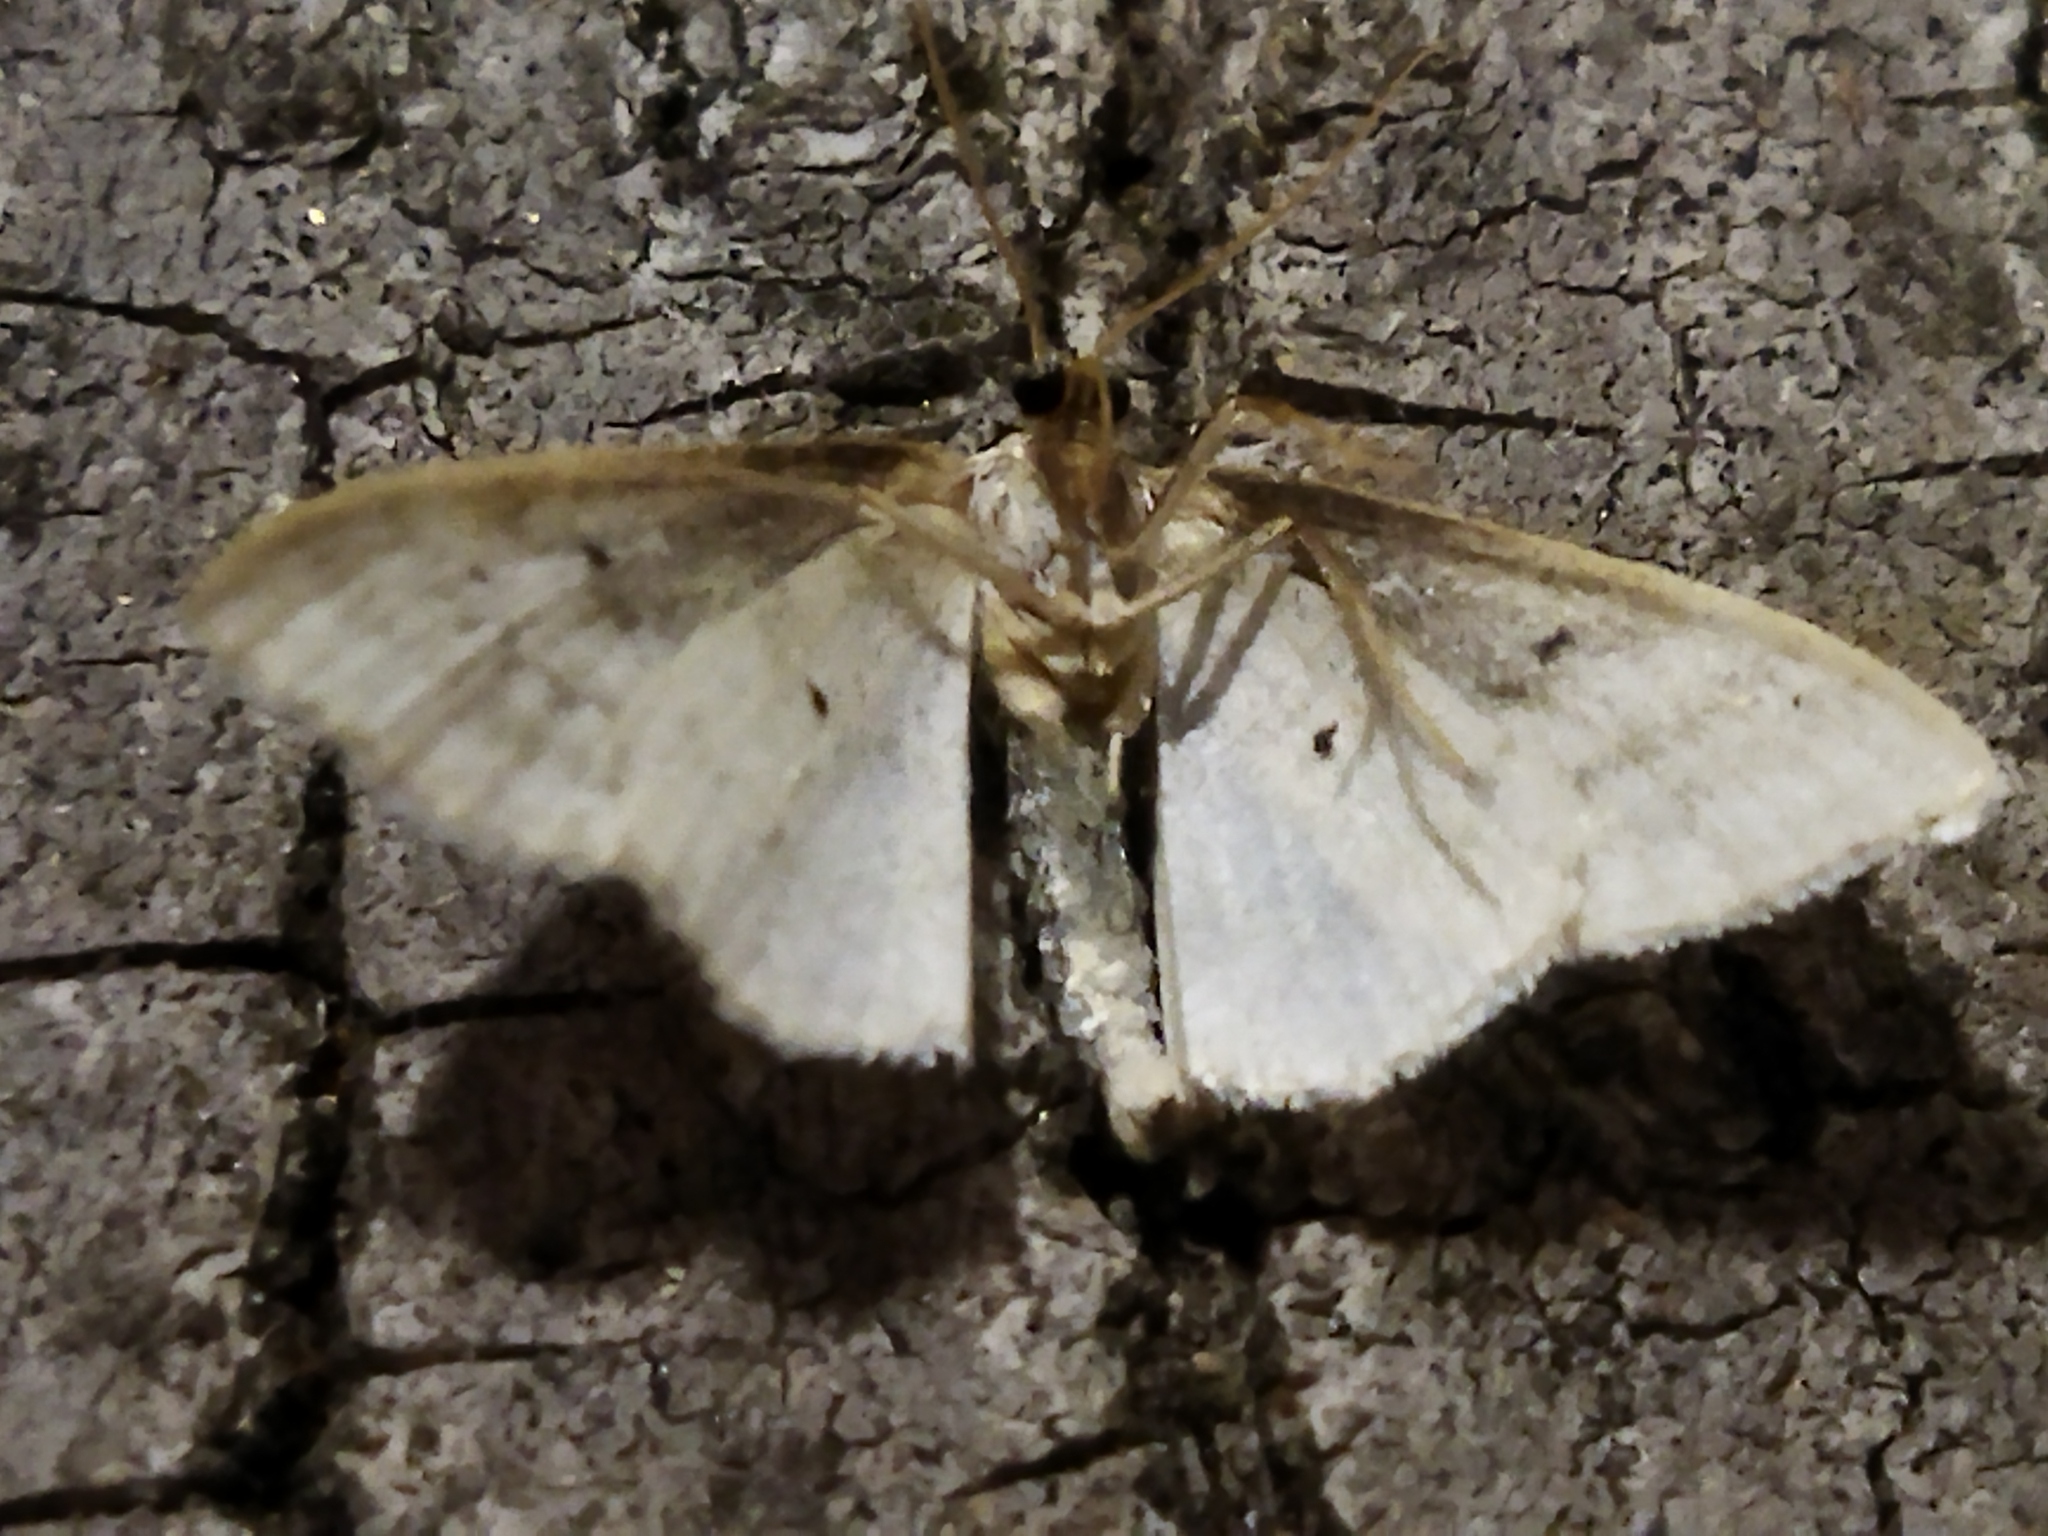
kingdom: Animalia
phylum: Arthropoda
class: Insecta
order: Lepidoptera
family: Geometridae
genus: Idaea
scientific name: Idaea subsericeata
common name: Satin wave
